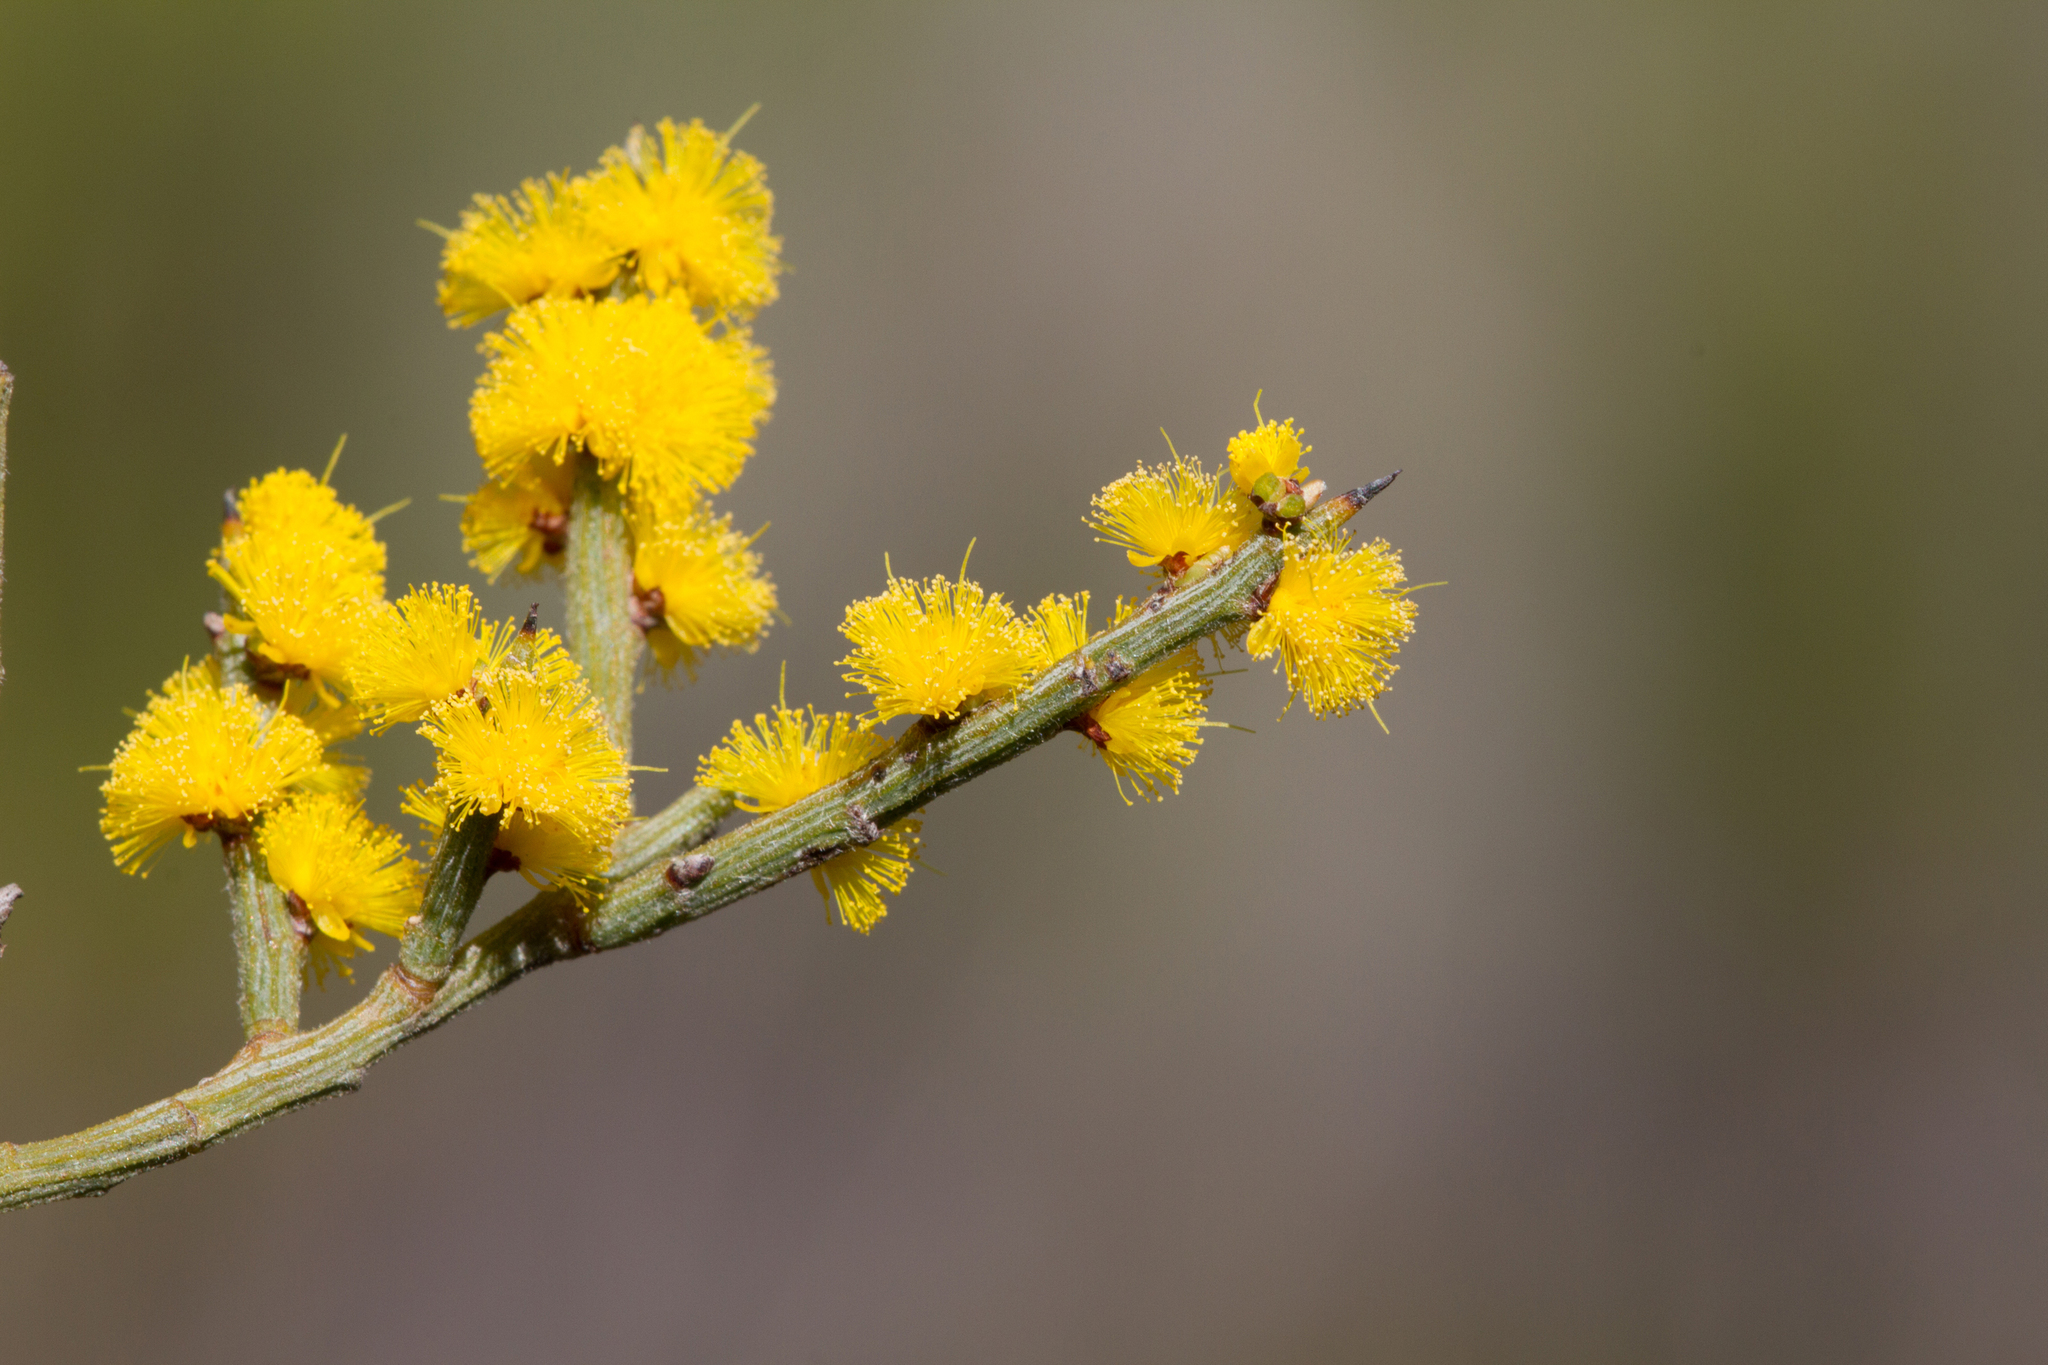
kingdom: Plantae
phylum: Tracheophyta
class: Magnoliopsida
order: Fabales
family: Fabaceae
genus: Acacia
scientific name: Acacia spinescens
